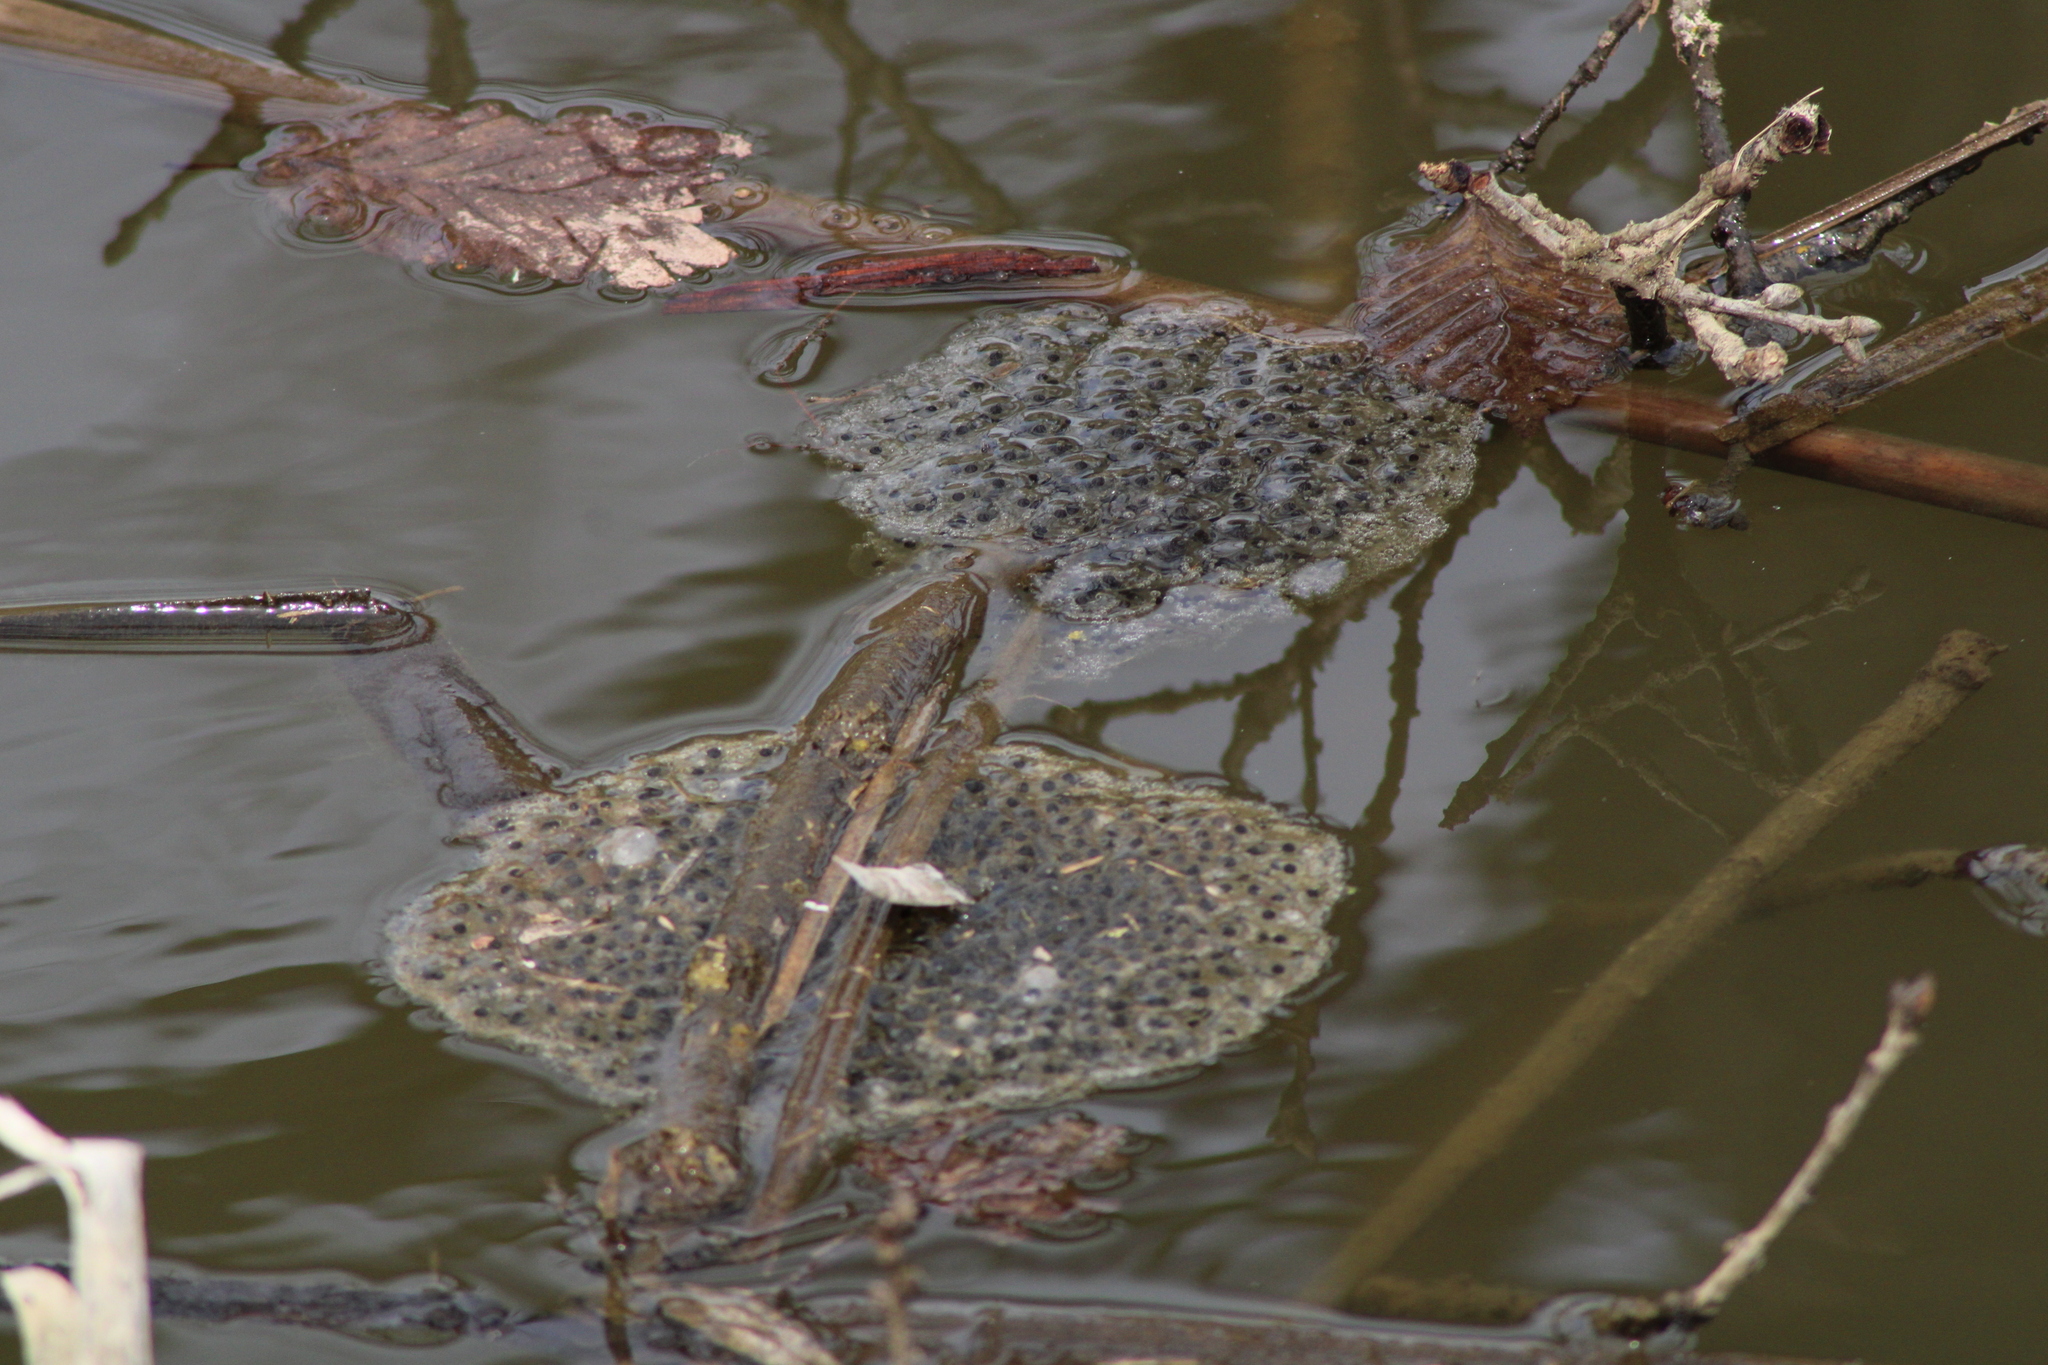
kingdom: Animalia
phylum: Chordata
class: Amphibia
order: Anura
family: Ranidae
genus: Rana
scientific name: Rana dalmatina
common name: Agile frog
